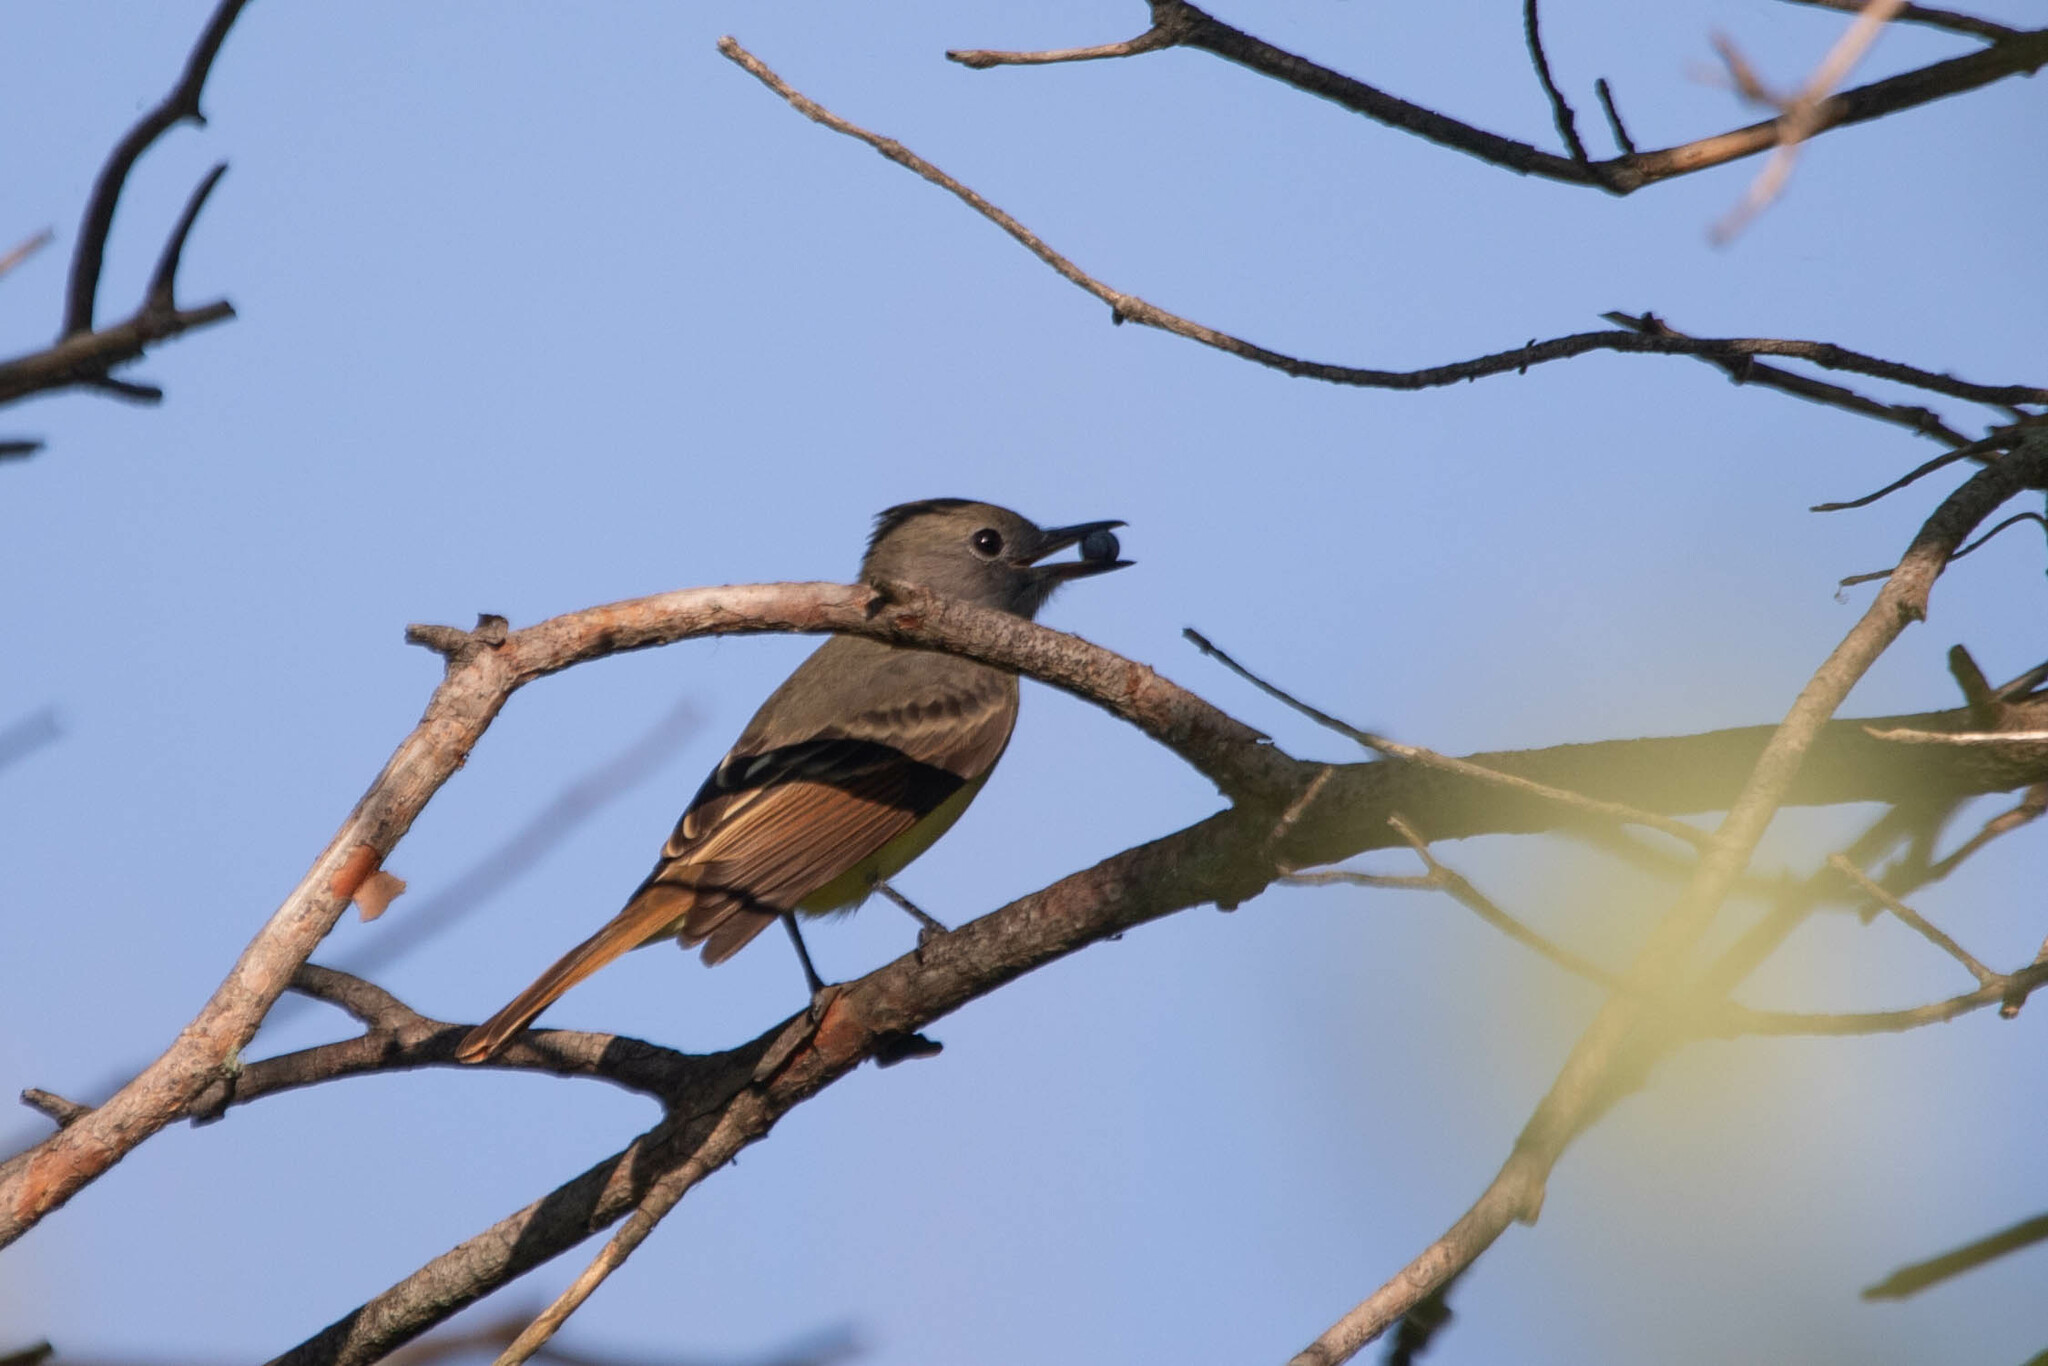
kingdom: Animalia
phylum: Chordata
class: Aves
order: Passeriformes
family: Tyrannidae
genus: Myiarchus
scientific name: Myiarchus crinitus
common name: Great crested flycatcher
